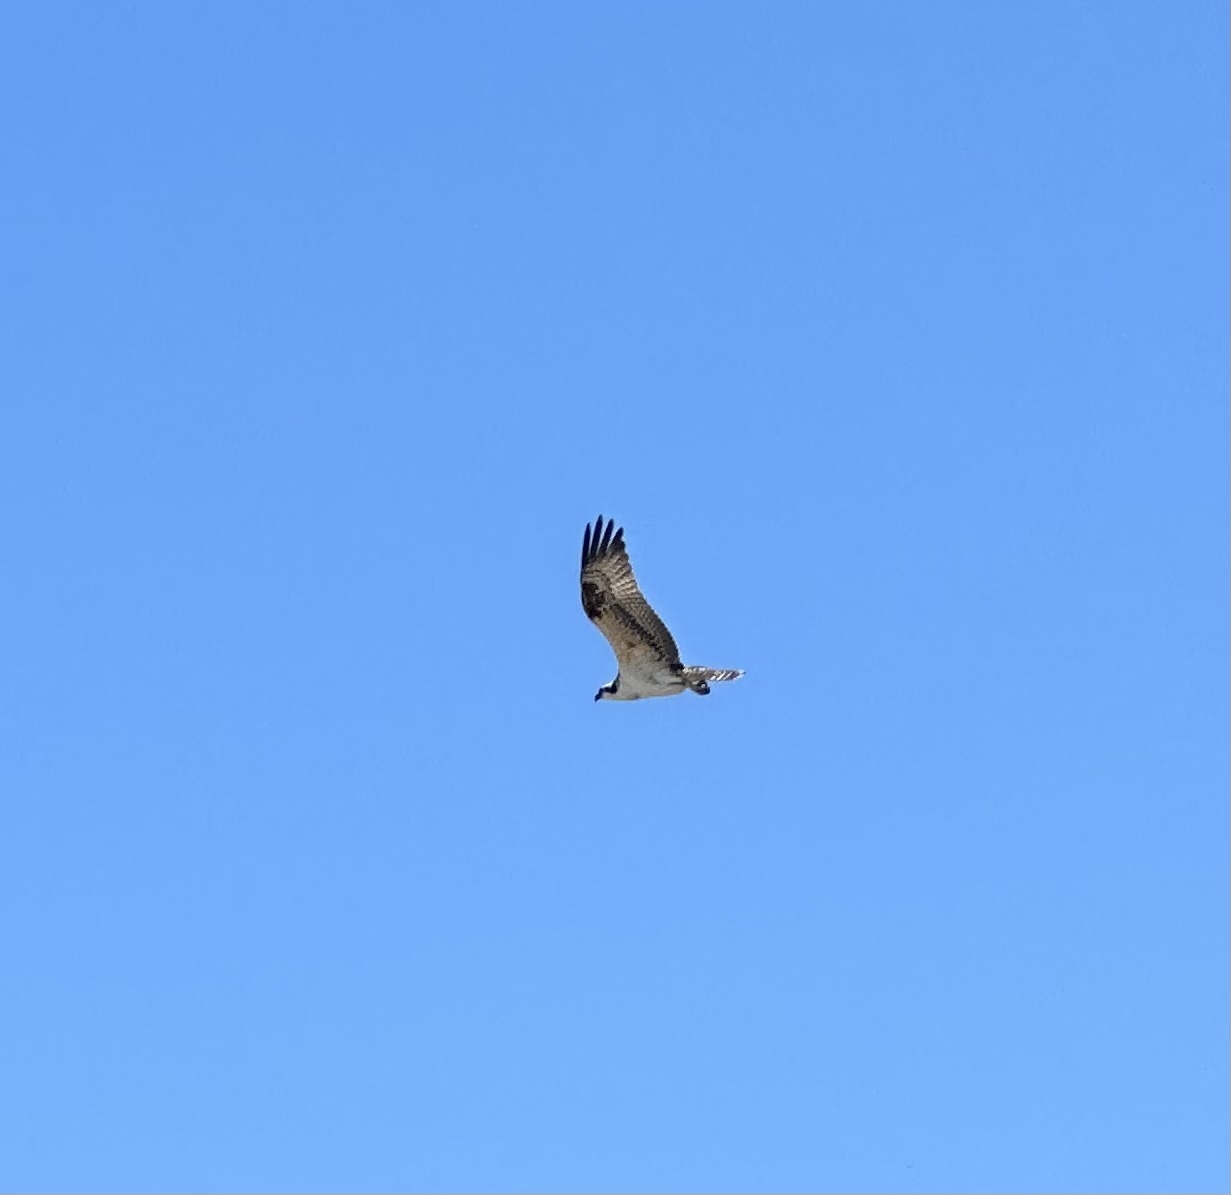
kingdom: Animalia
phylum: Chordata
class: Aves
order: Accipitriformes
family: Pandionidae
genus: Pandion
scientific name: Pandion haliaetus
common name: Osprey
